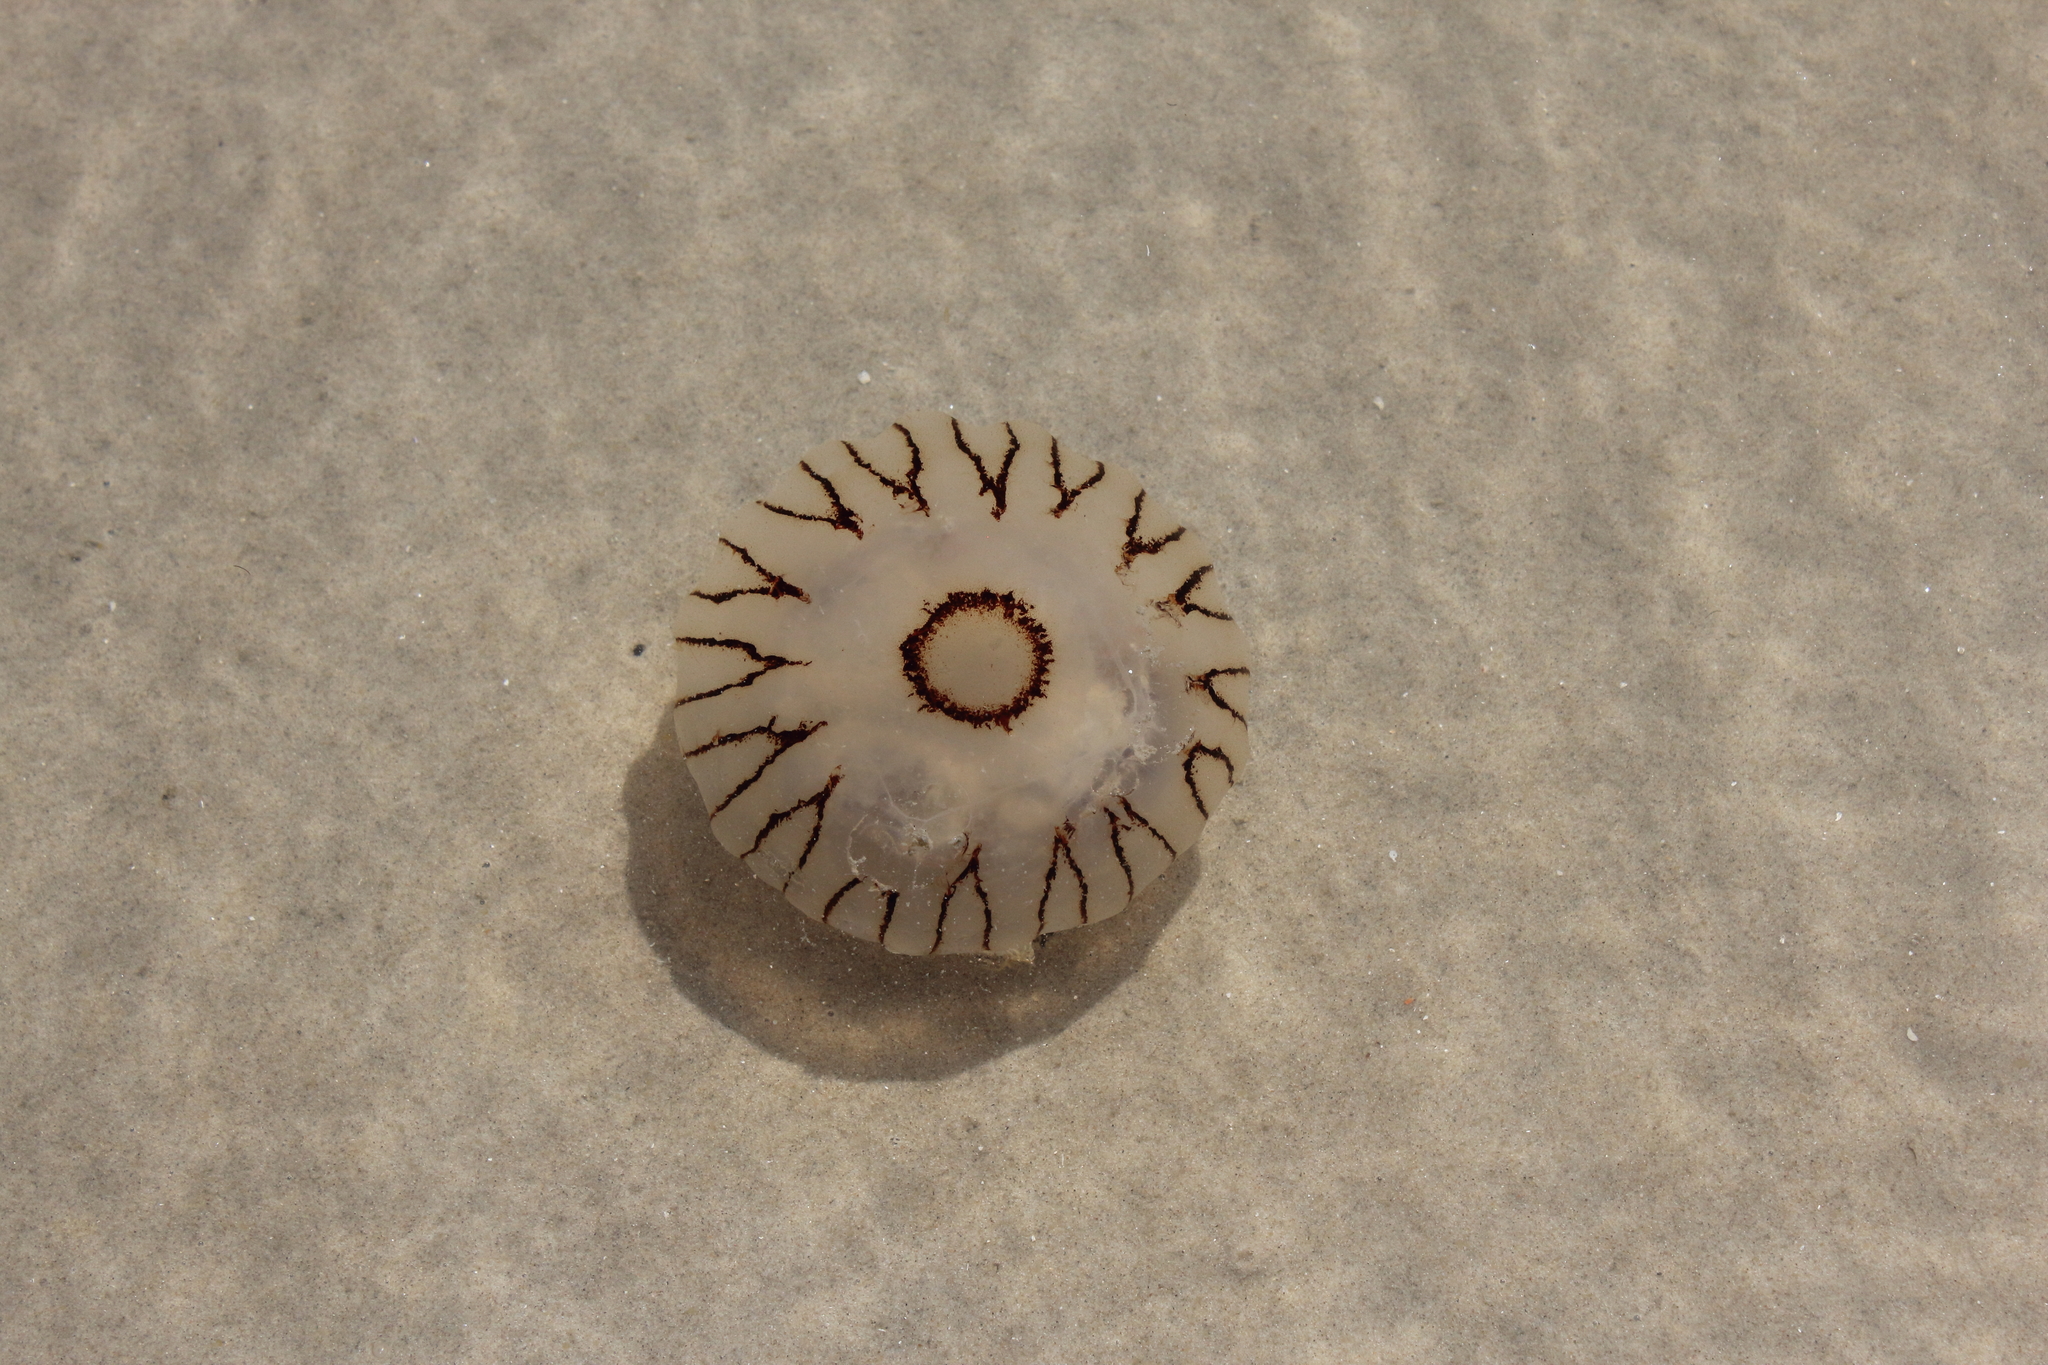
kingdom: Animalia
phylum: Cnidaria
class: Scyphozoa
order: Semaeostomeae
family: Pelagiidae
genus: Chrysaora
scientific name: Chrysaora hysoscella
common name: Compass jellyfish
